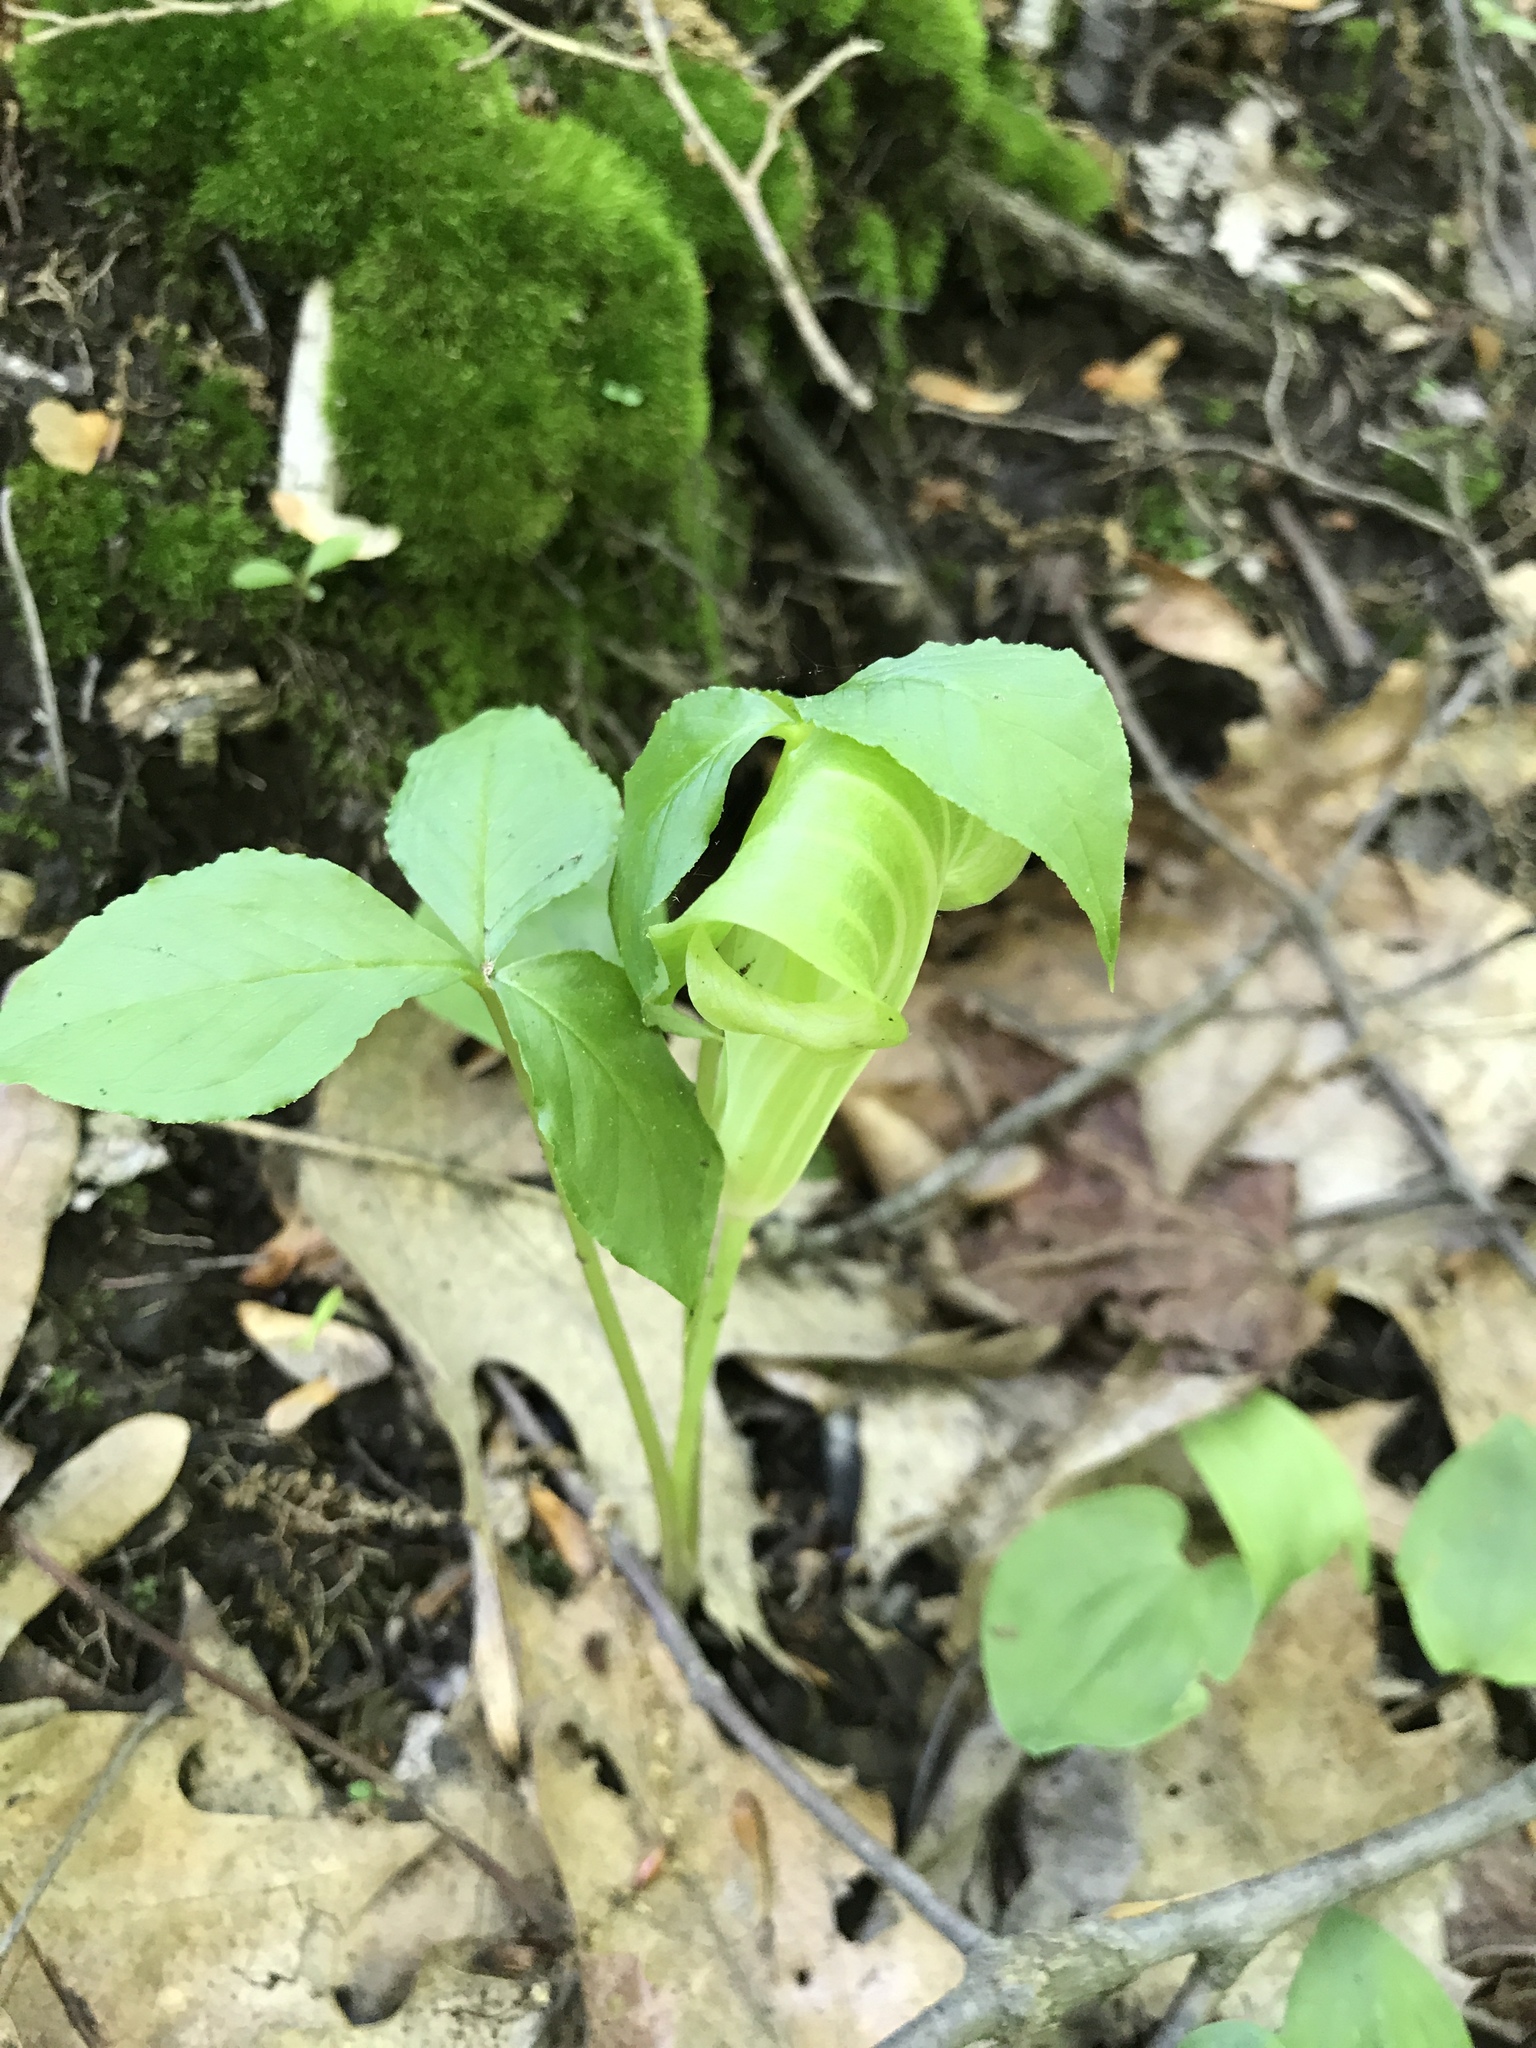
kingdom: Plantae
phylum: Tracheophyta
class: Liliopsida
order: Alismatales
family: Araceae
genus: Arisaema
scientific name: Arisaema triphyllum
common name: Jack-in-the-pulpit
